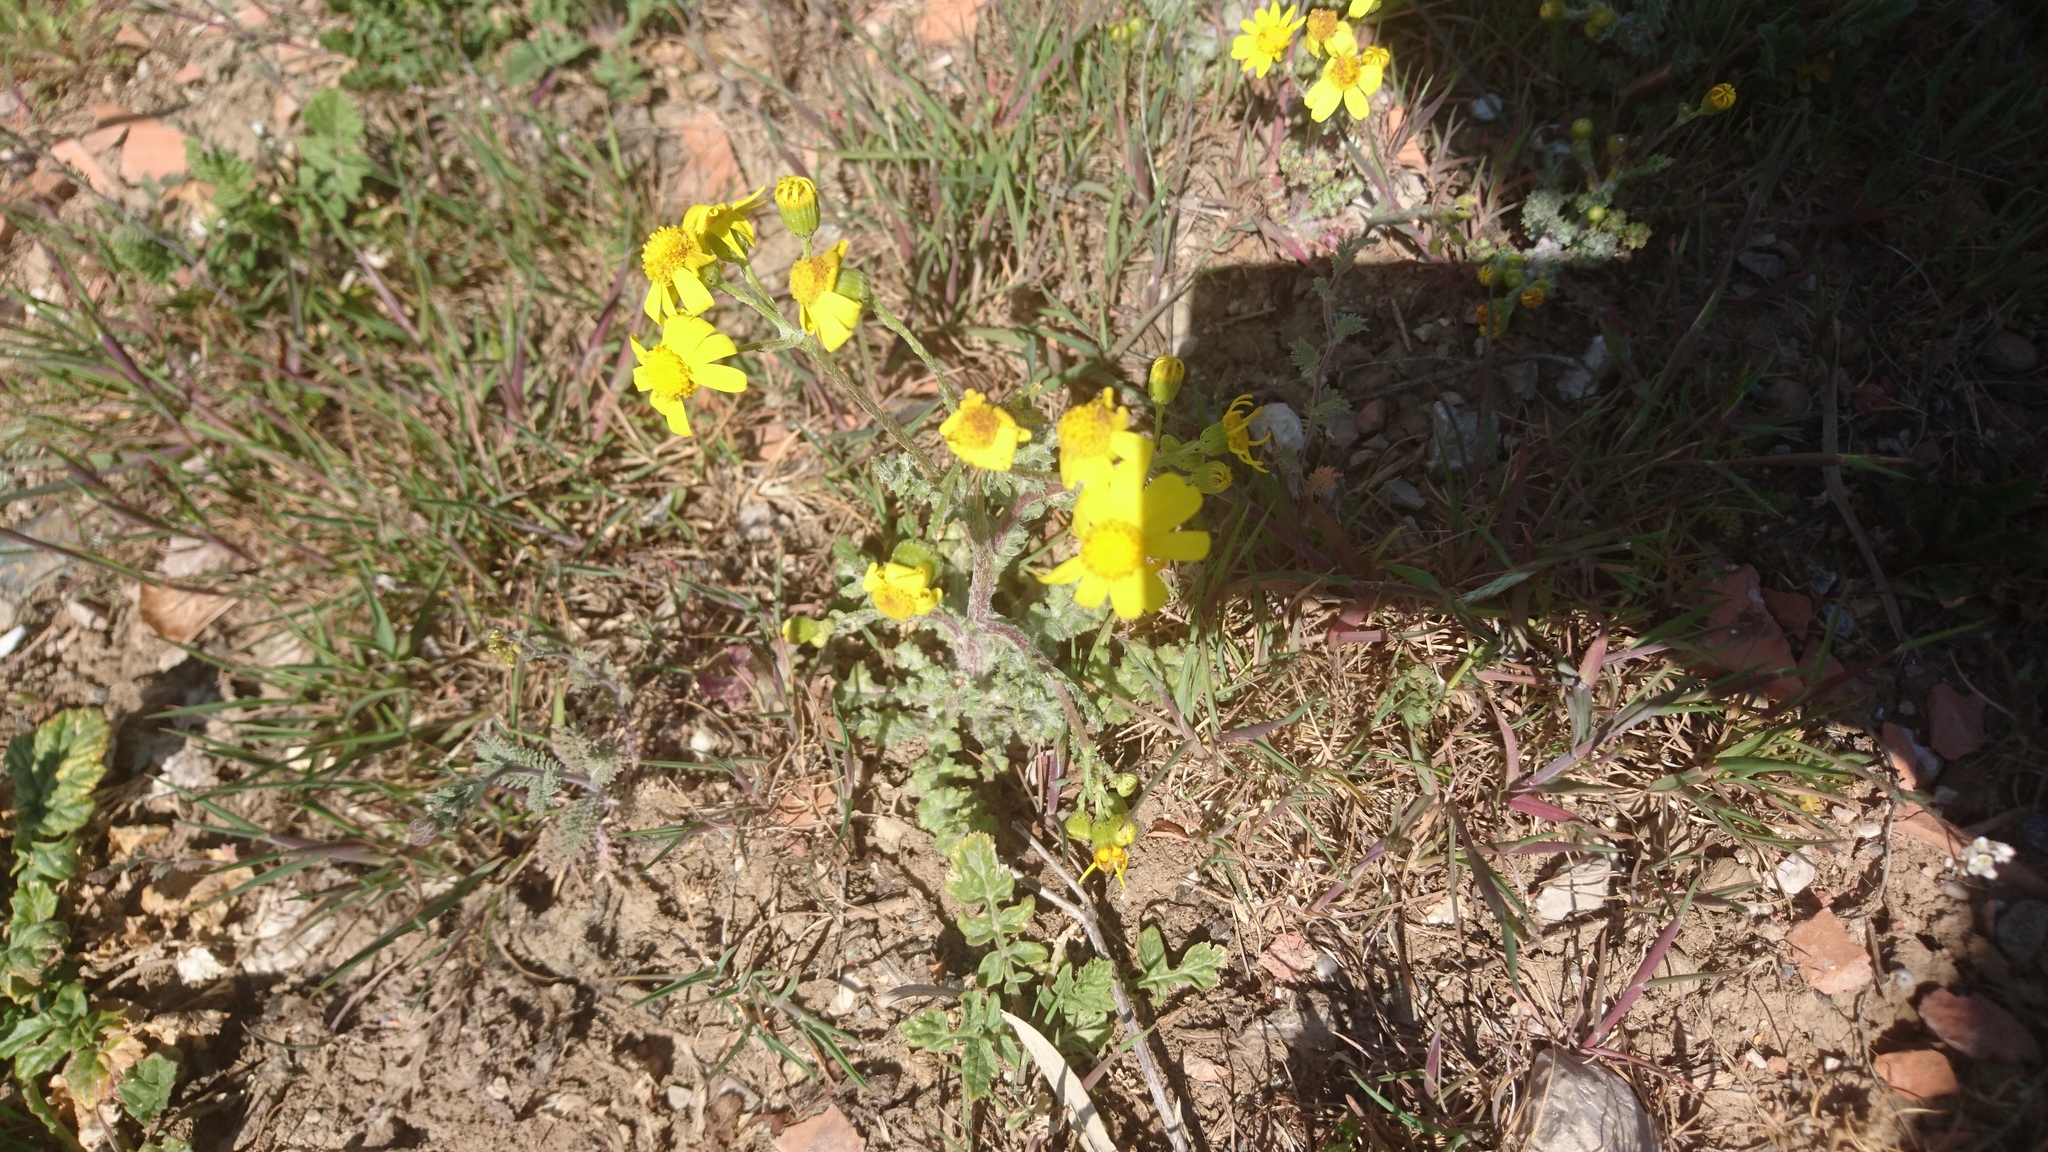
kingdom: Plantae
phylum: Tracheophyta
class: Magnoliopsida
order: Asterales
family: Asteraceae
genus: Senecio
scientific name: Senecio vernalis
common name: Eastern groundsel
